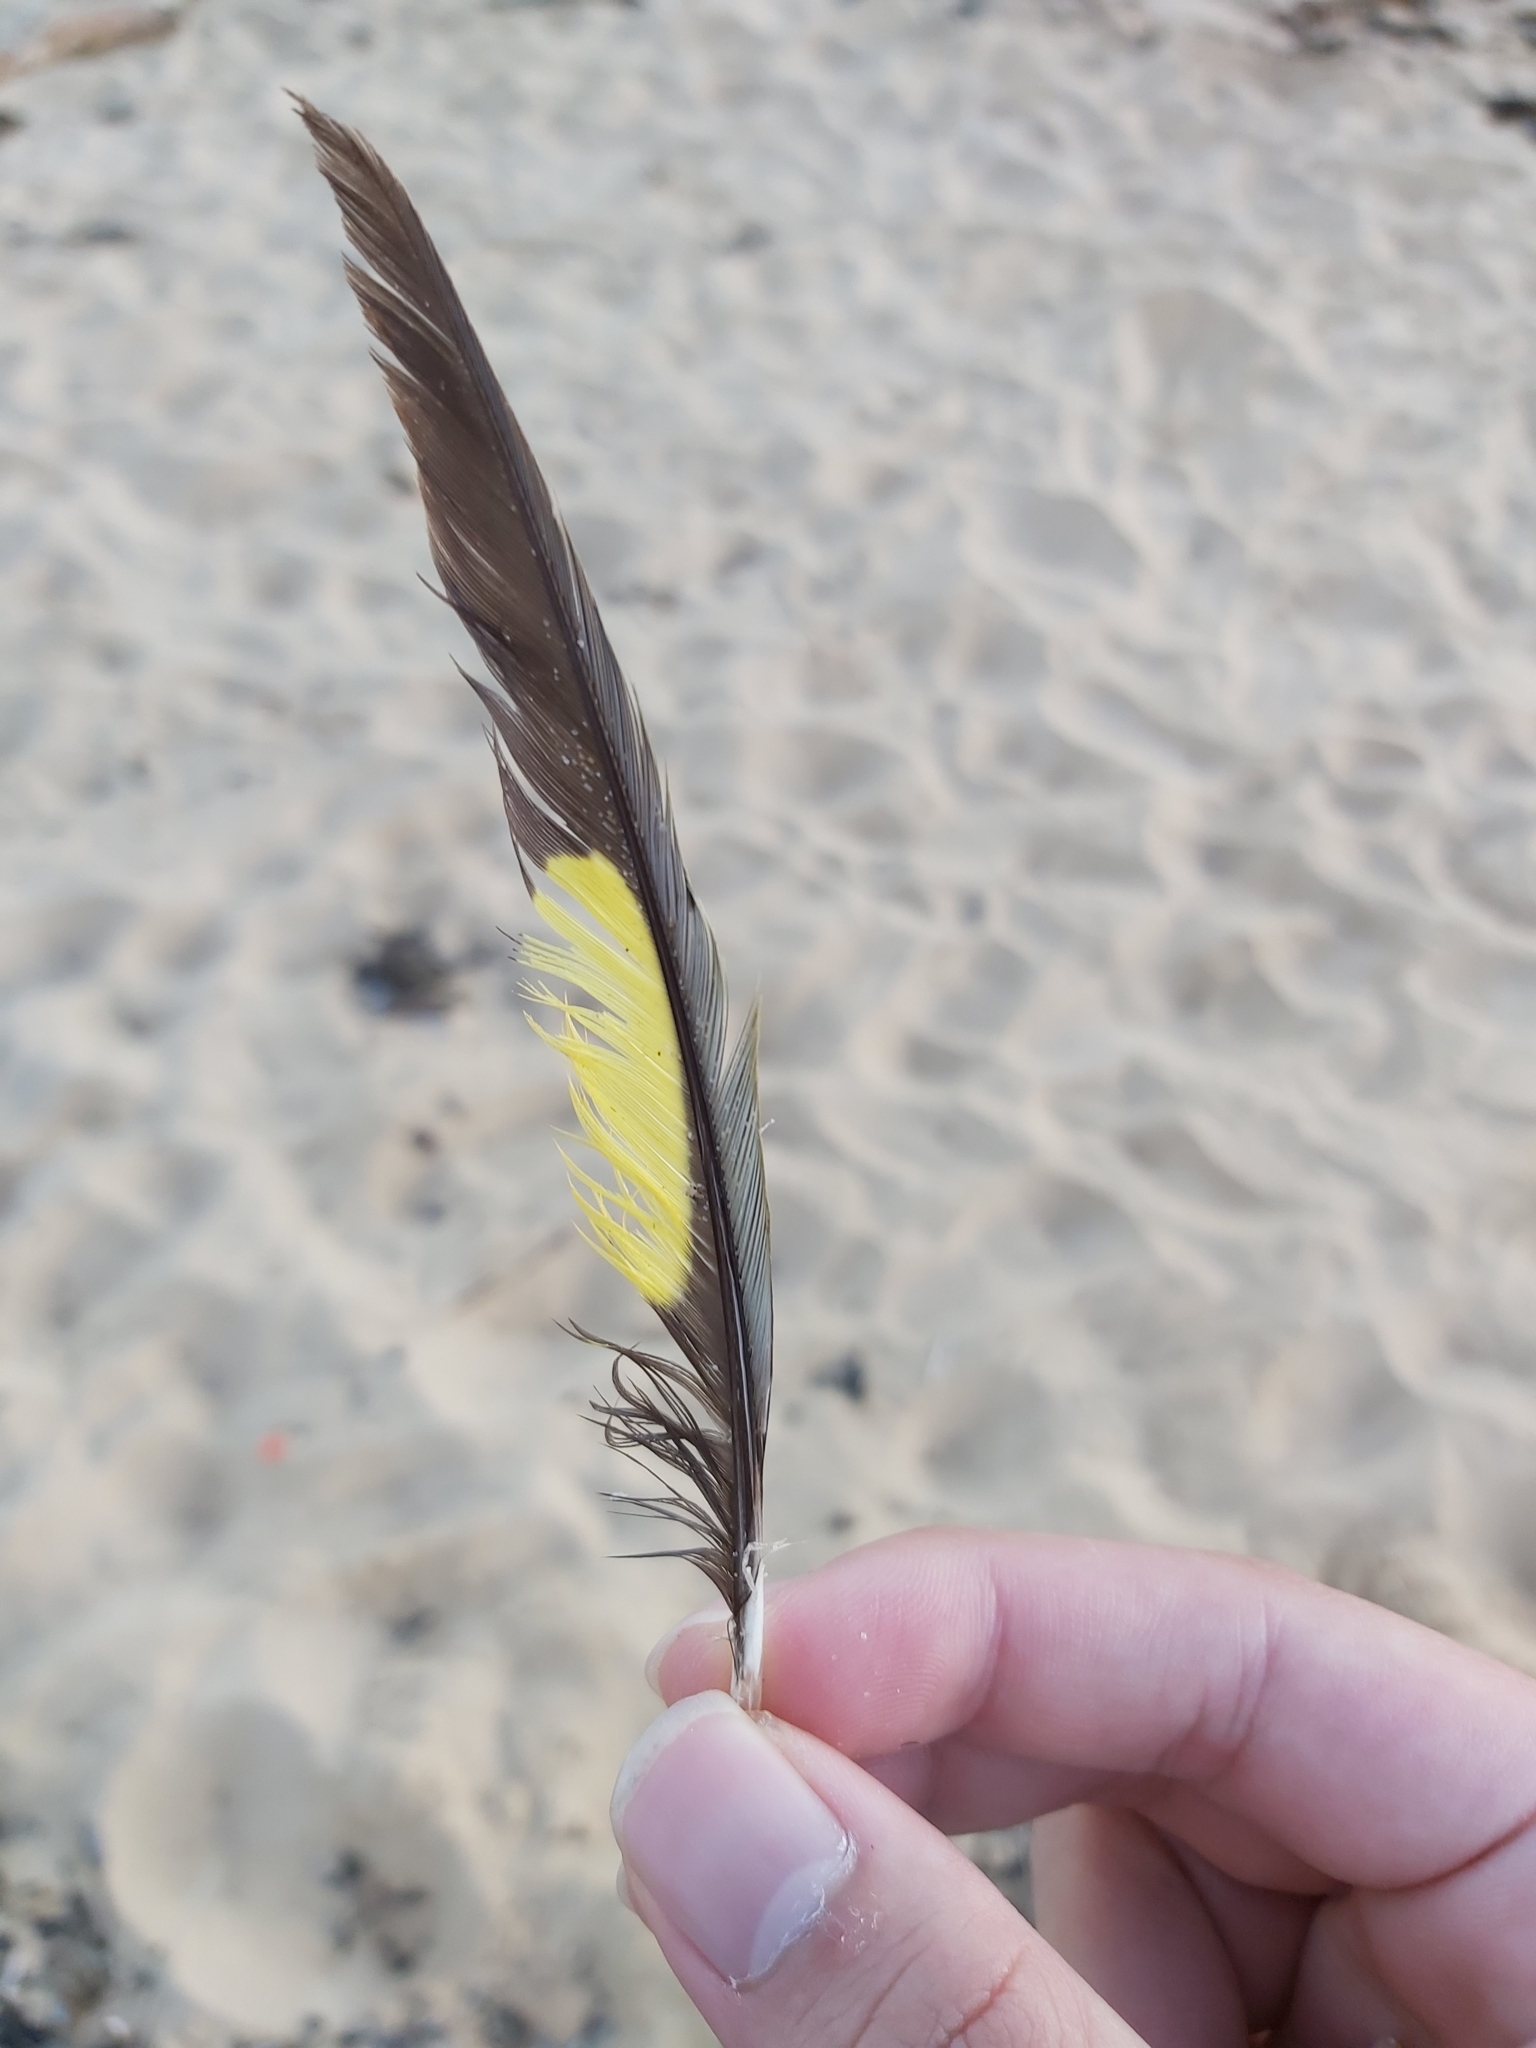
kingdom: Animalia
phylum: Chordata
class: Aves
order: Psittaciformes
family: Psittacidae
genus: Trichoglossus
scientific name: Trichoglossus haematodus
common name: Coconut lorikeet
